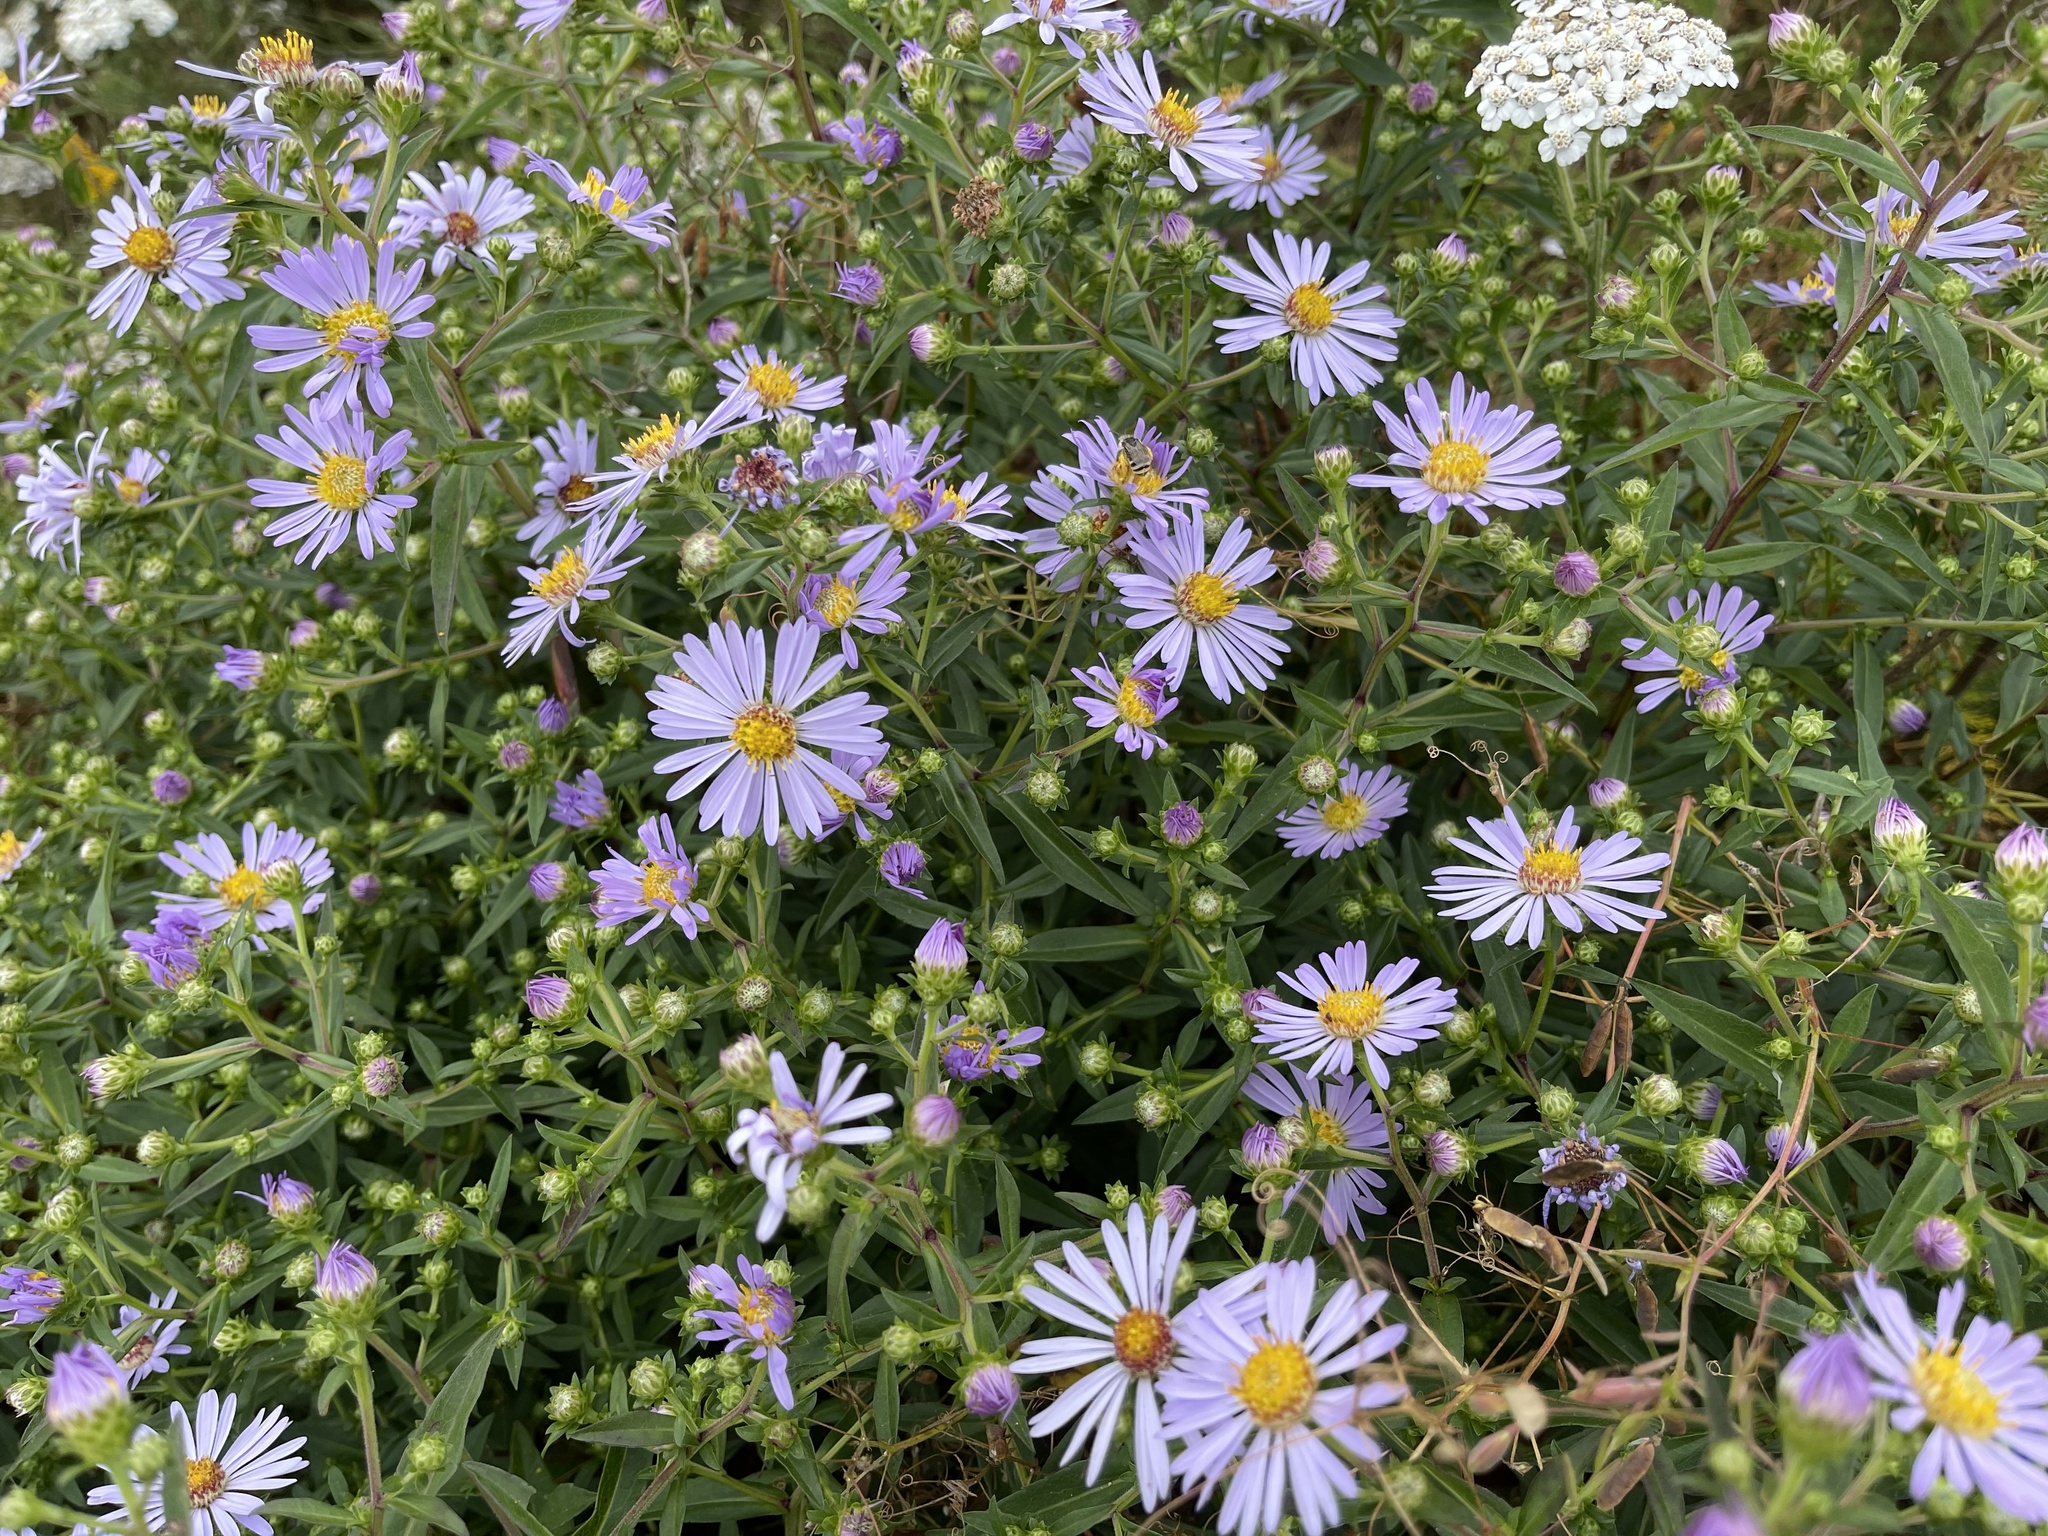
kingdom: Plantae
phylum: Tracheophyta
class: Magnoliopsida
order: Asterales
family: Asteraceae
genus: Symphyotrichum
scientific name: Symphyotrichum chilense
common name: Pacific aster
